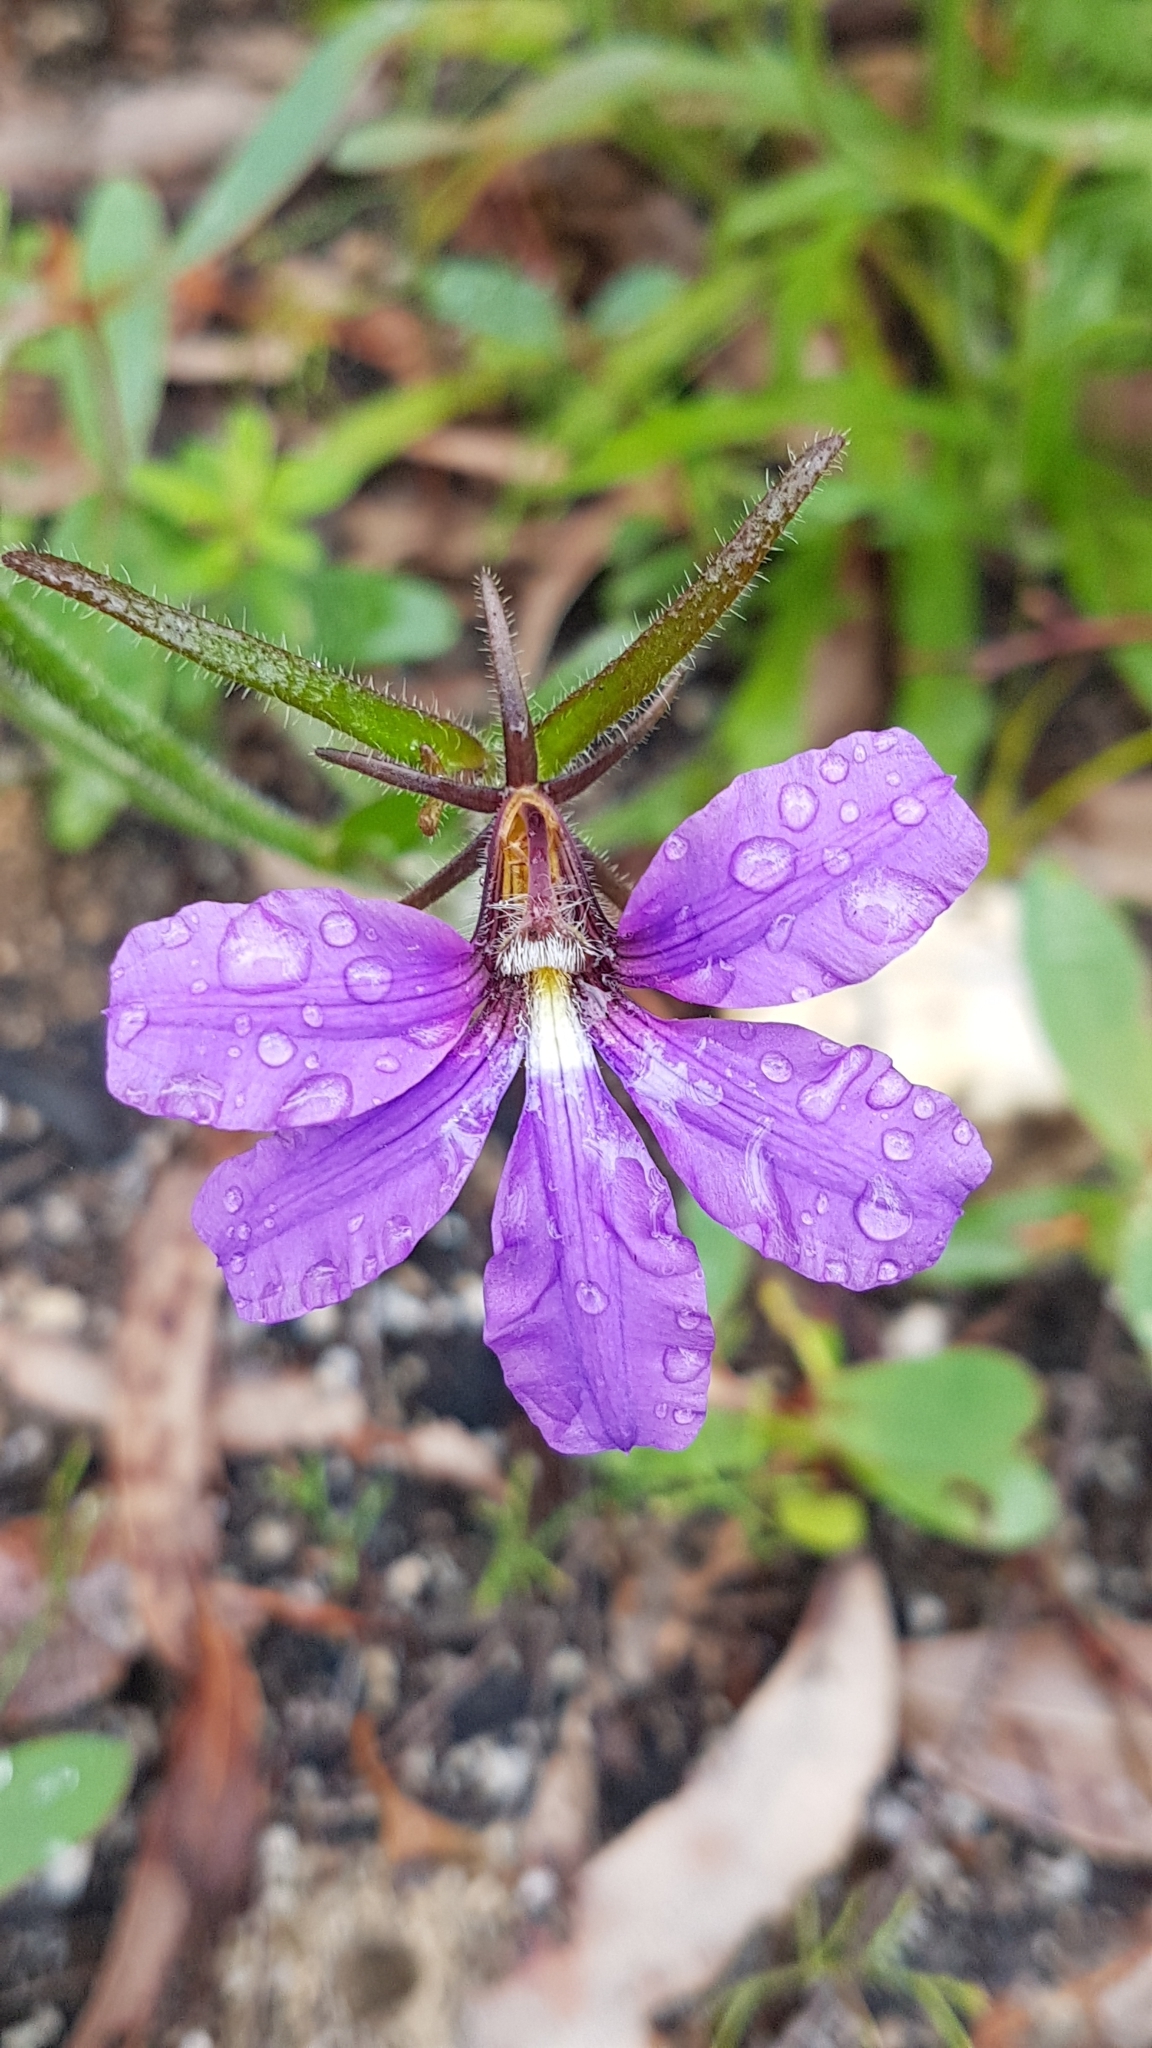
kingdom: Plantae
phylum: Tracheophyta
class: Magnoliopsida
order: Asterales
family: Goodeniaceae
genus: Scaevola
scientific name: Scaevola ramosissima
